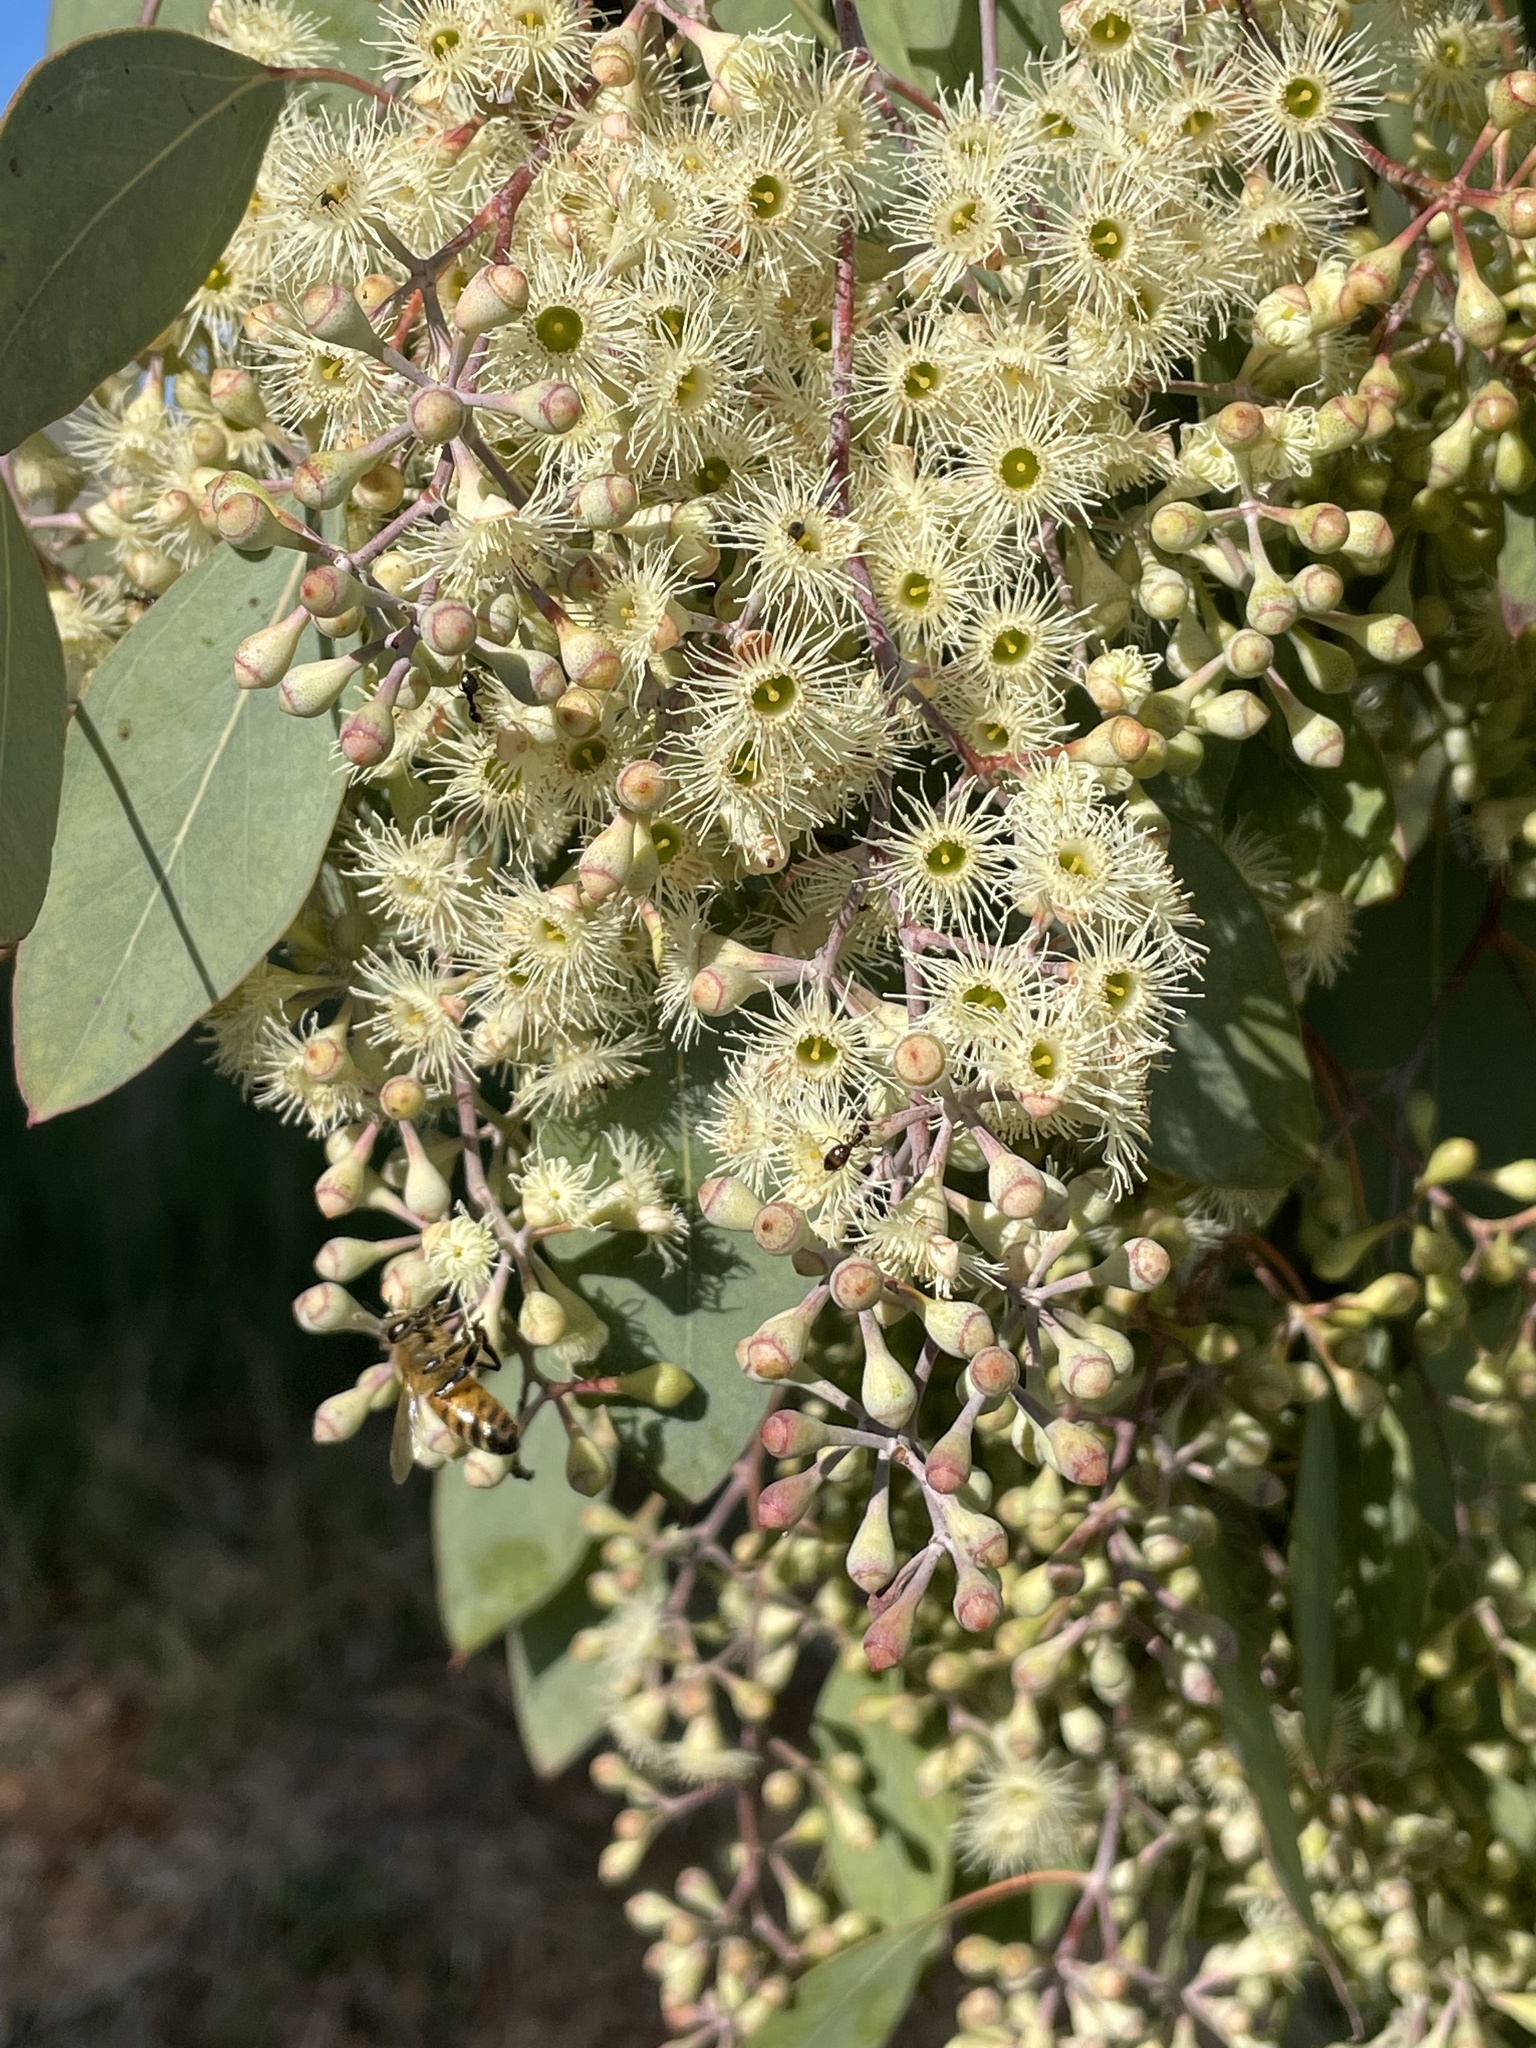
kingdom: Plantae
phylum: Tracheophyta
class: Magnoliopsida
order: Myrtales
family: Myrtaceae
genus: Eucalyptus
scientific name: Eucalyptus polyanthemos
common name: Red-box
